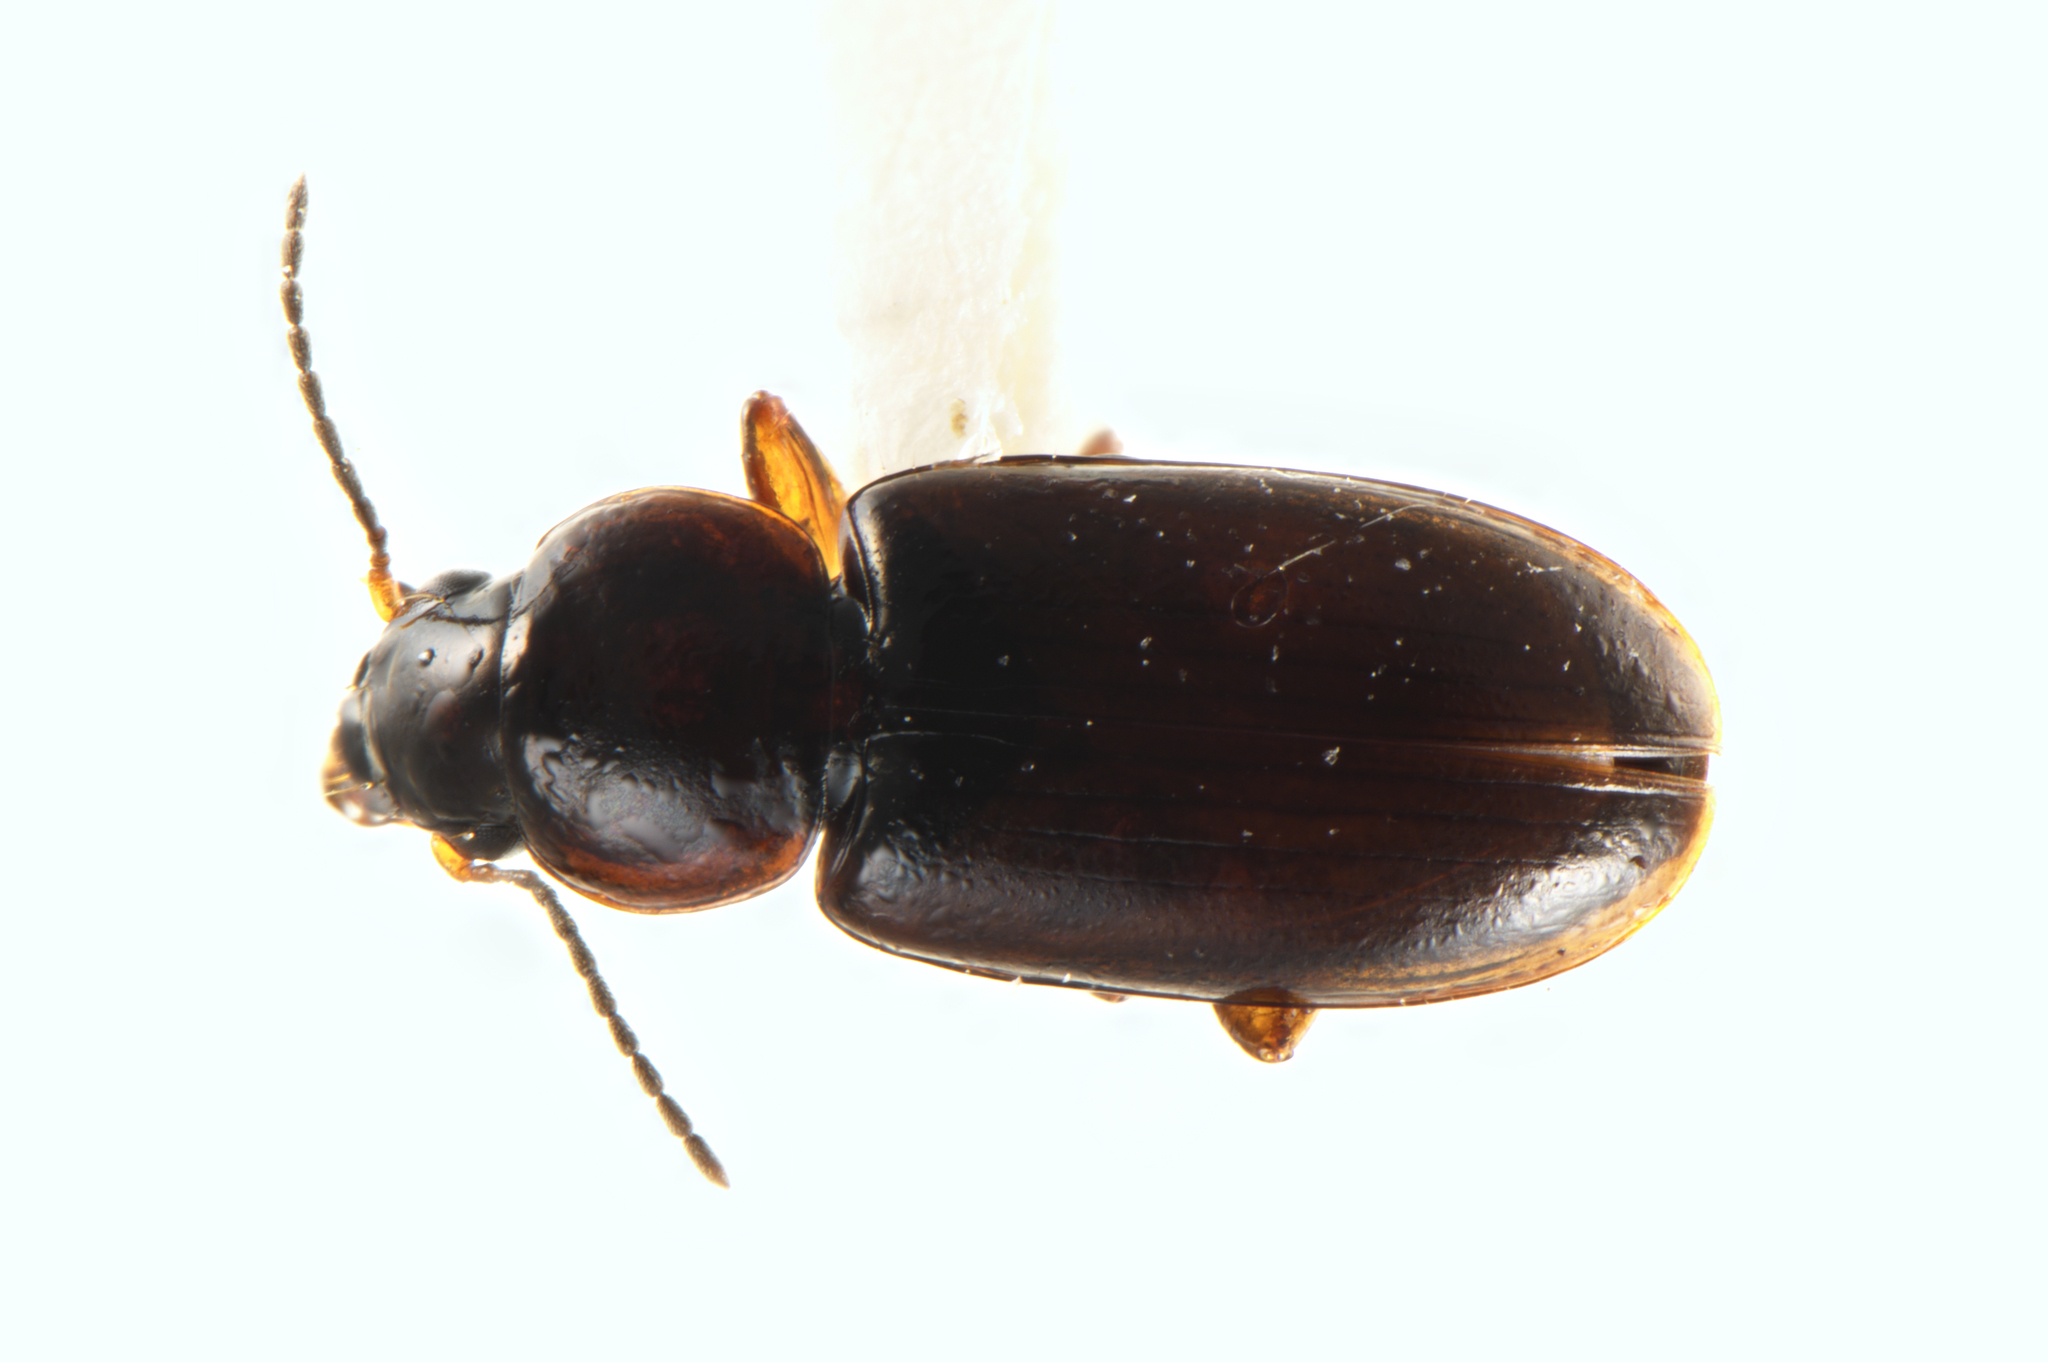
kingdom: Animalia
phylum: Arthropoda
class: Insecta
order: Coleoptera
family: Carabidae
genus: Haplanister
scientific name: Haplanister crypticus
